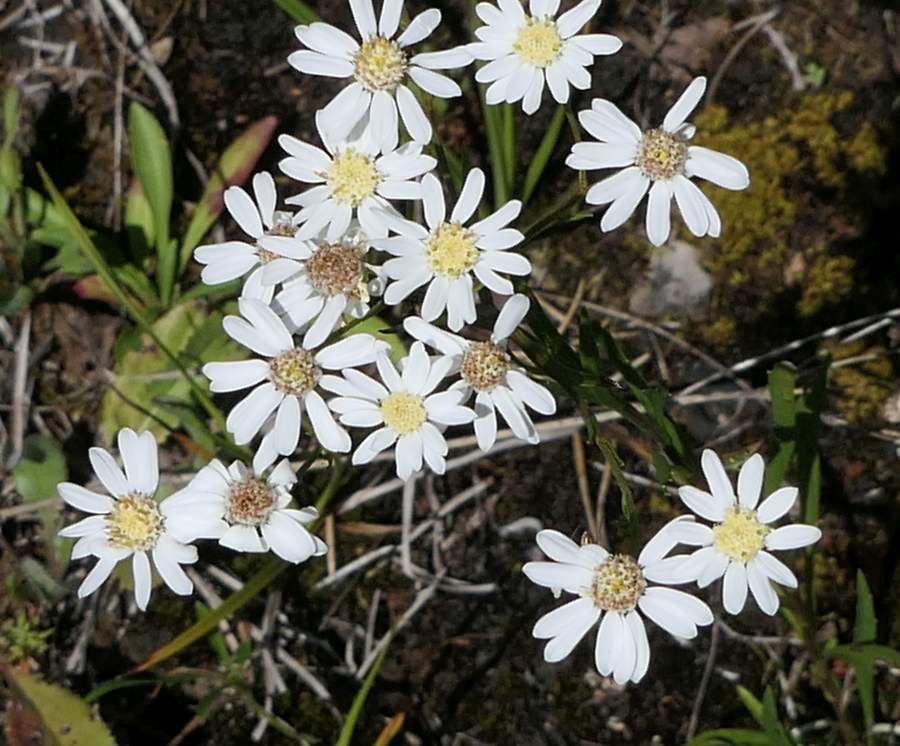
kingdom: Plantae
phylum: Tracheophyta
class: Magnoliopsida
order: Asterales
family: Asteraceae
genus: Solidago
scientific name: Solidago ptarmicoides
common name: White flat-top goldenrod
